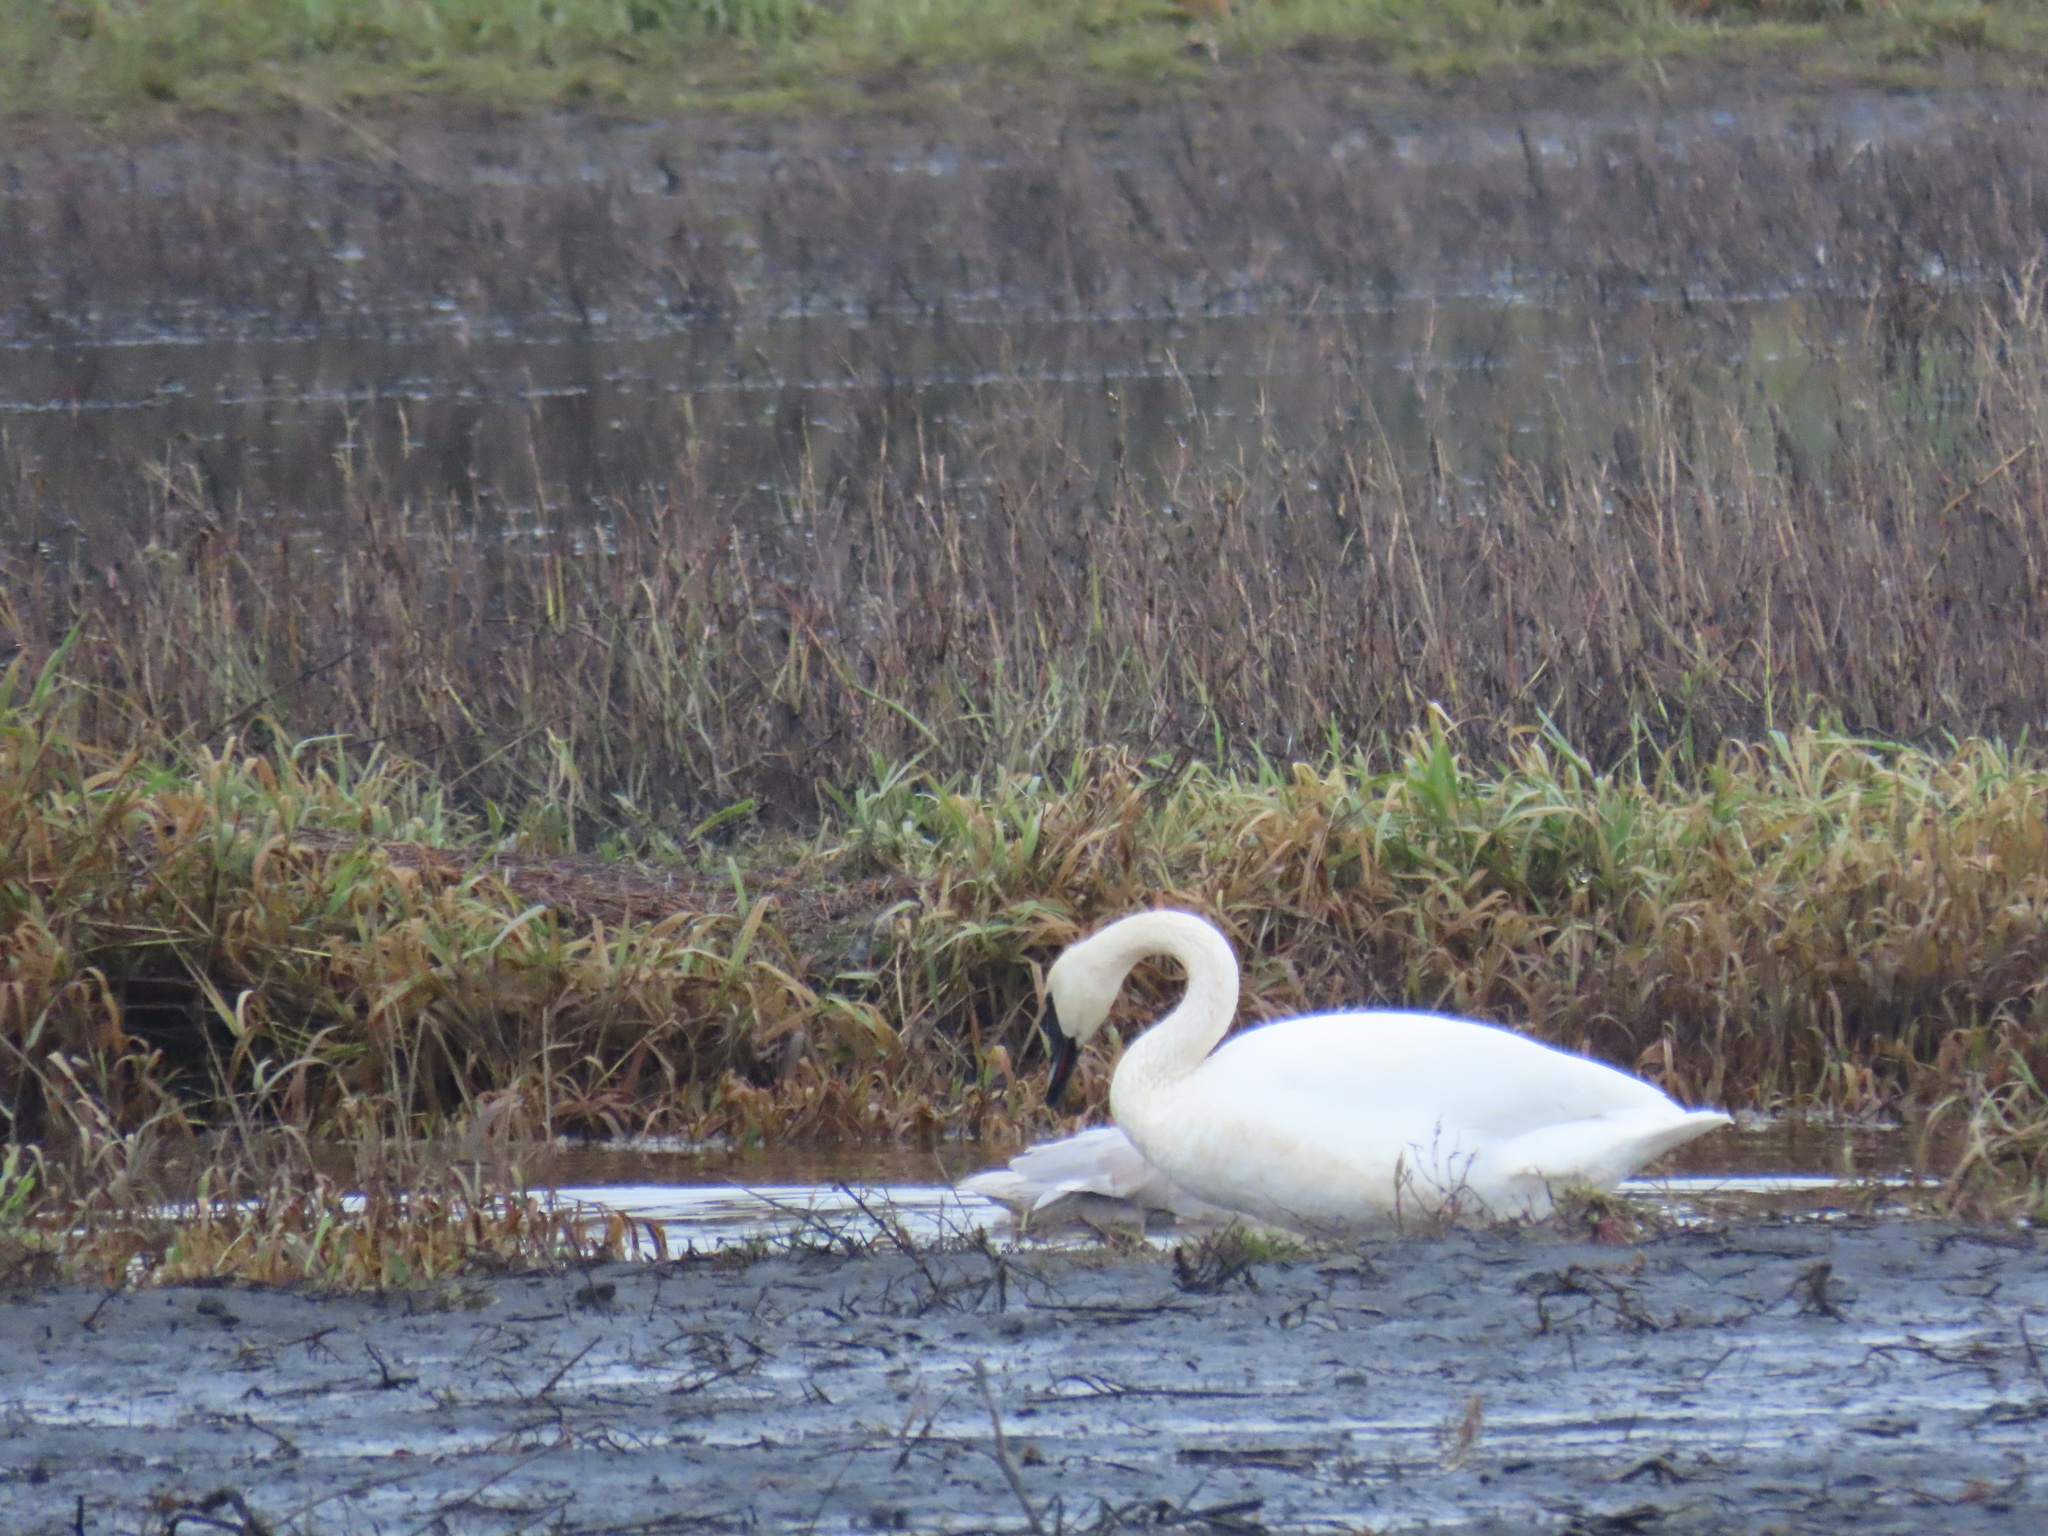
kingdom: Animalia
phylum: Chordata
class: Aves
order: Anseriformes
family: Anatidae
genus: Cygnus
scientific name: Cygnus buccinator
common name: Trumpeter swan
